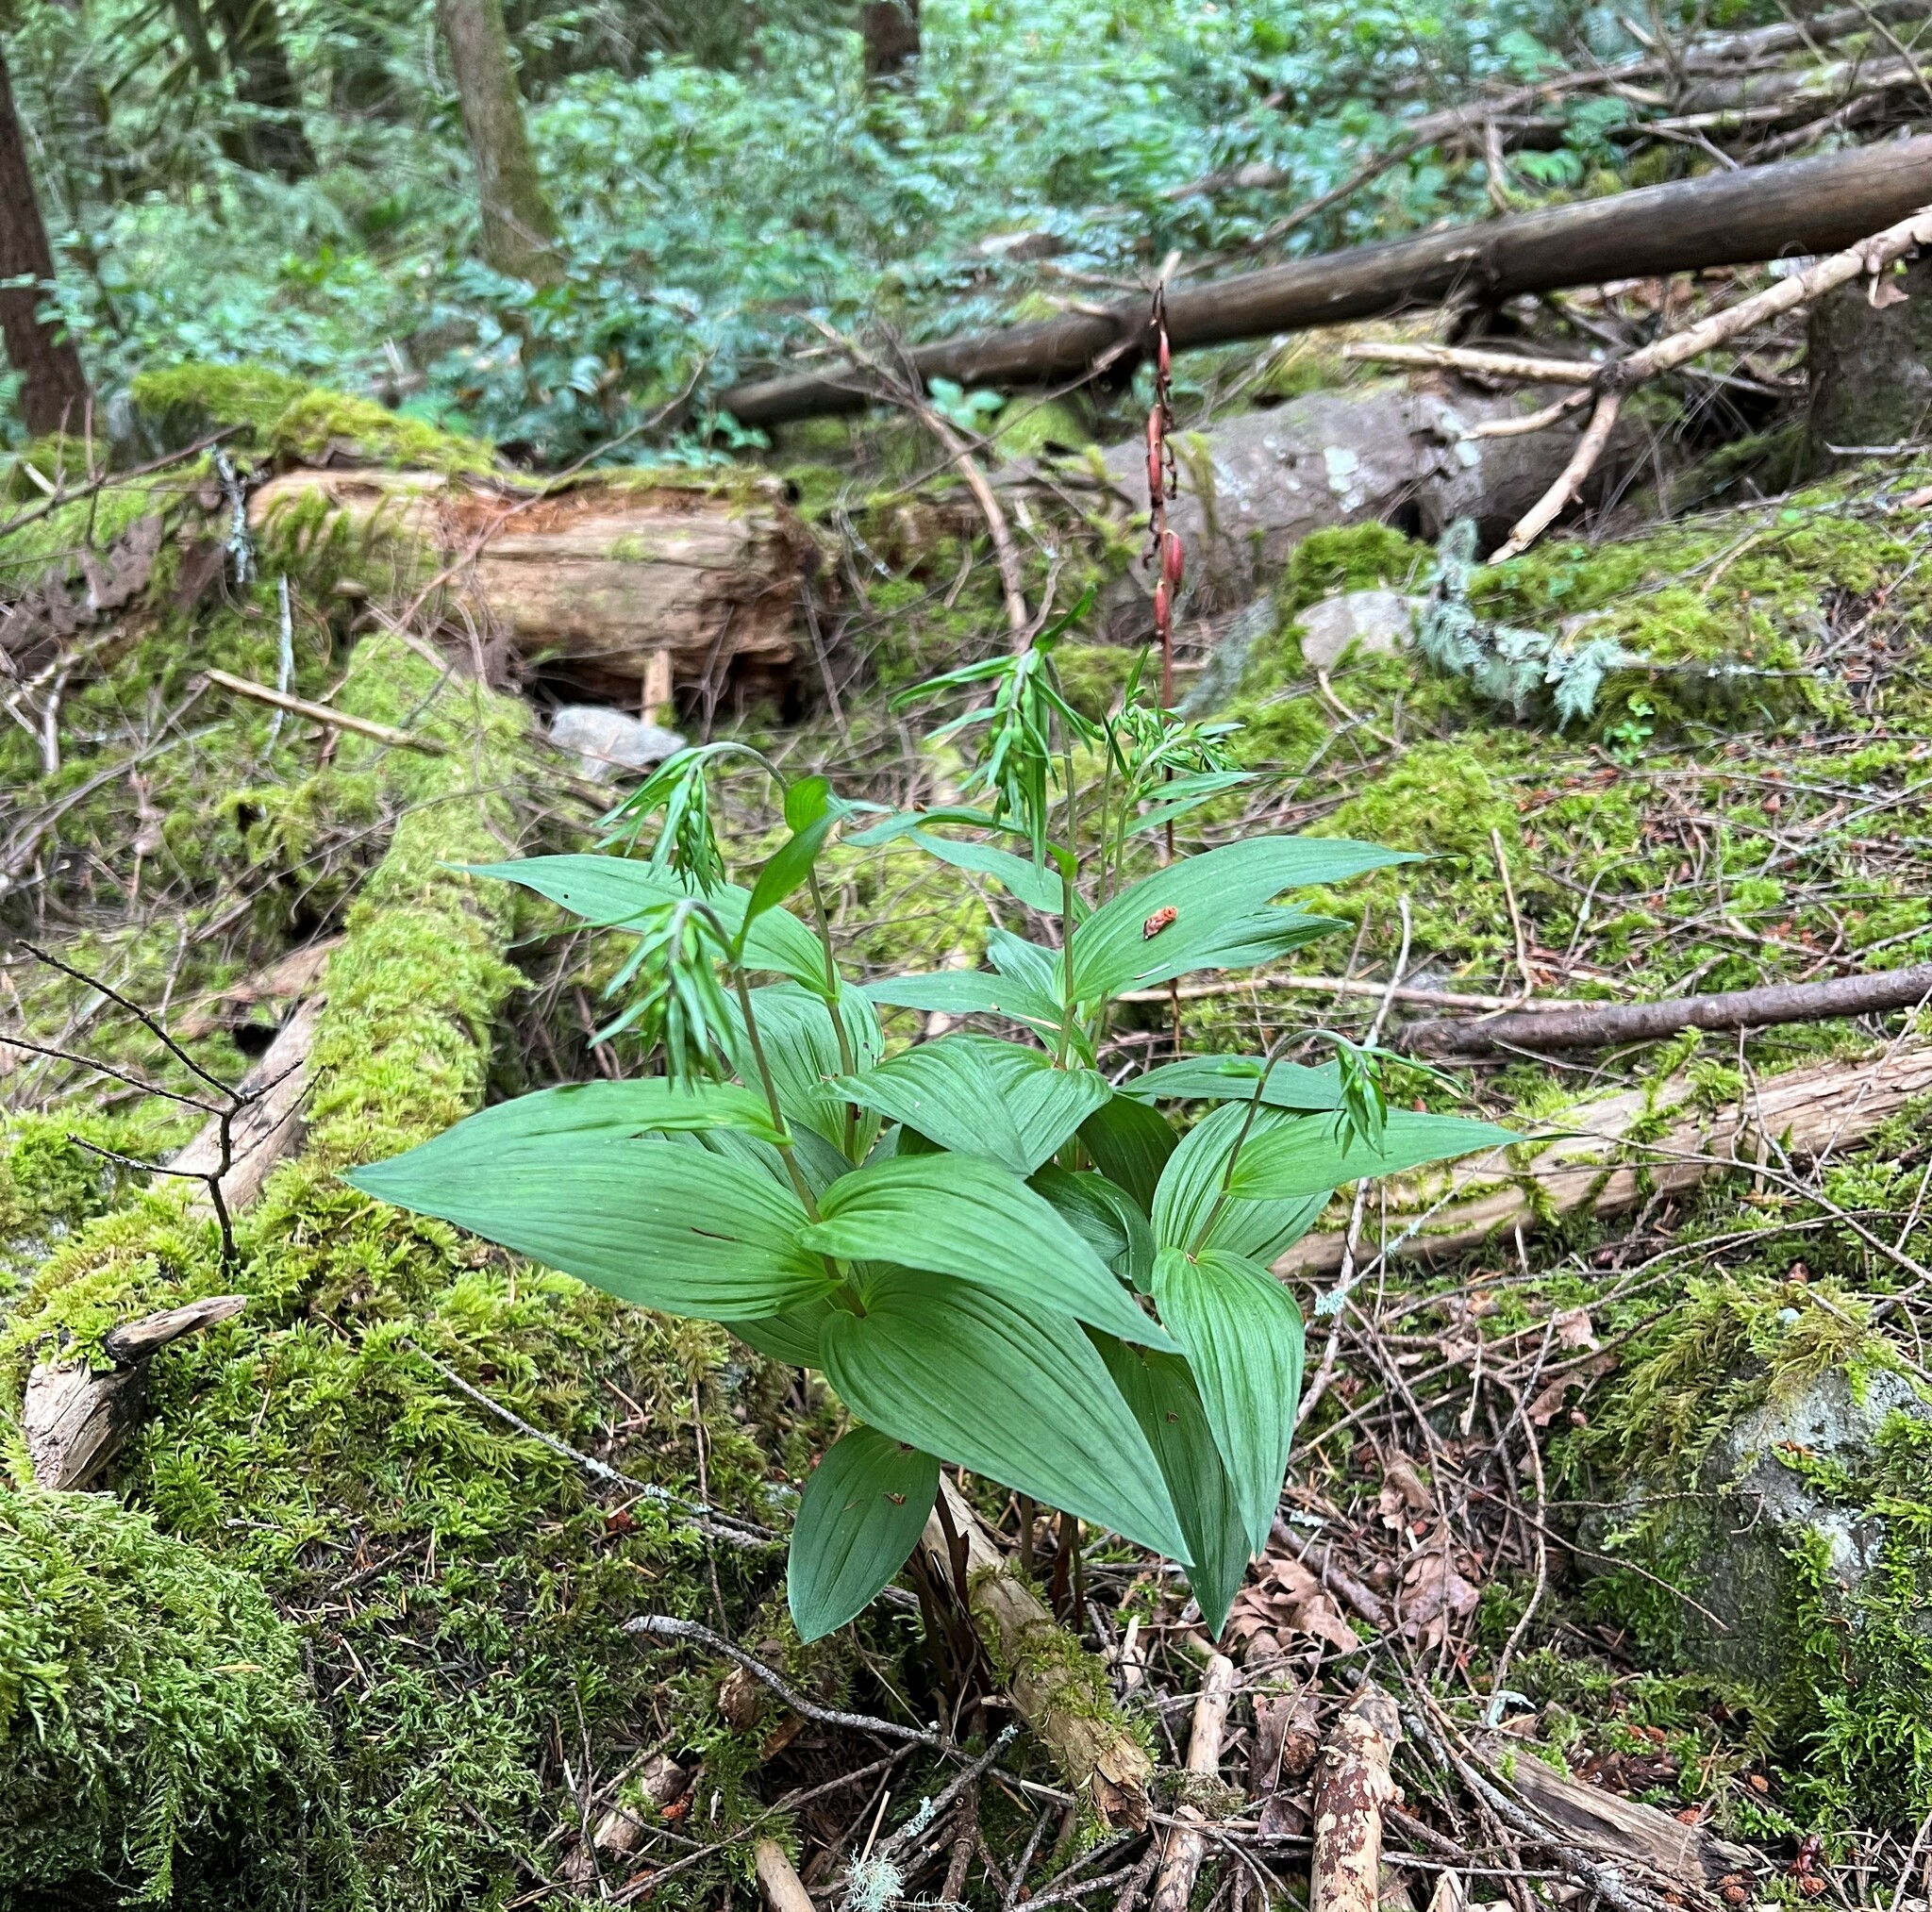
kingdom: Plantae
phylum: Tracheophyta
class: Liliopsida
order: Asparagales
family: Orchidaceae
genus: Epipactis
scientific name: Epipactis helleborine
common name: Broad-leaved helleborine
